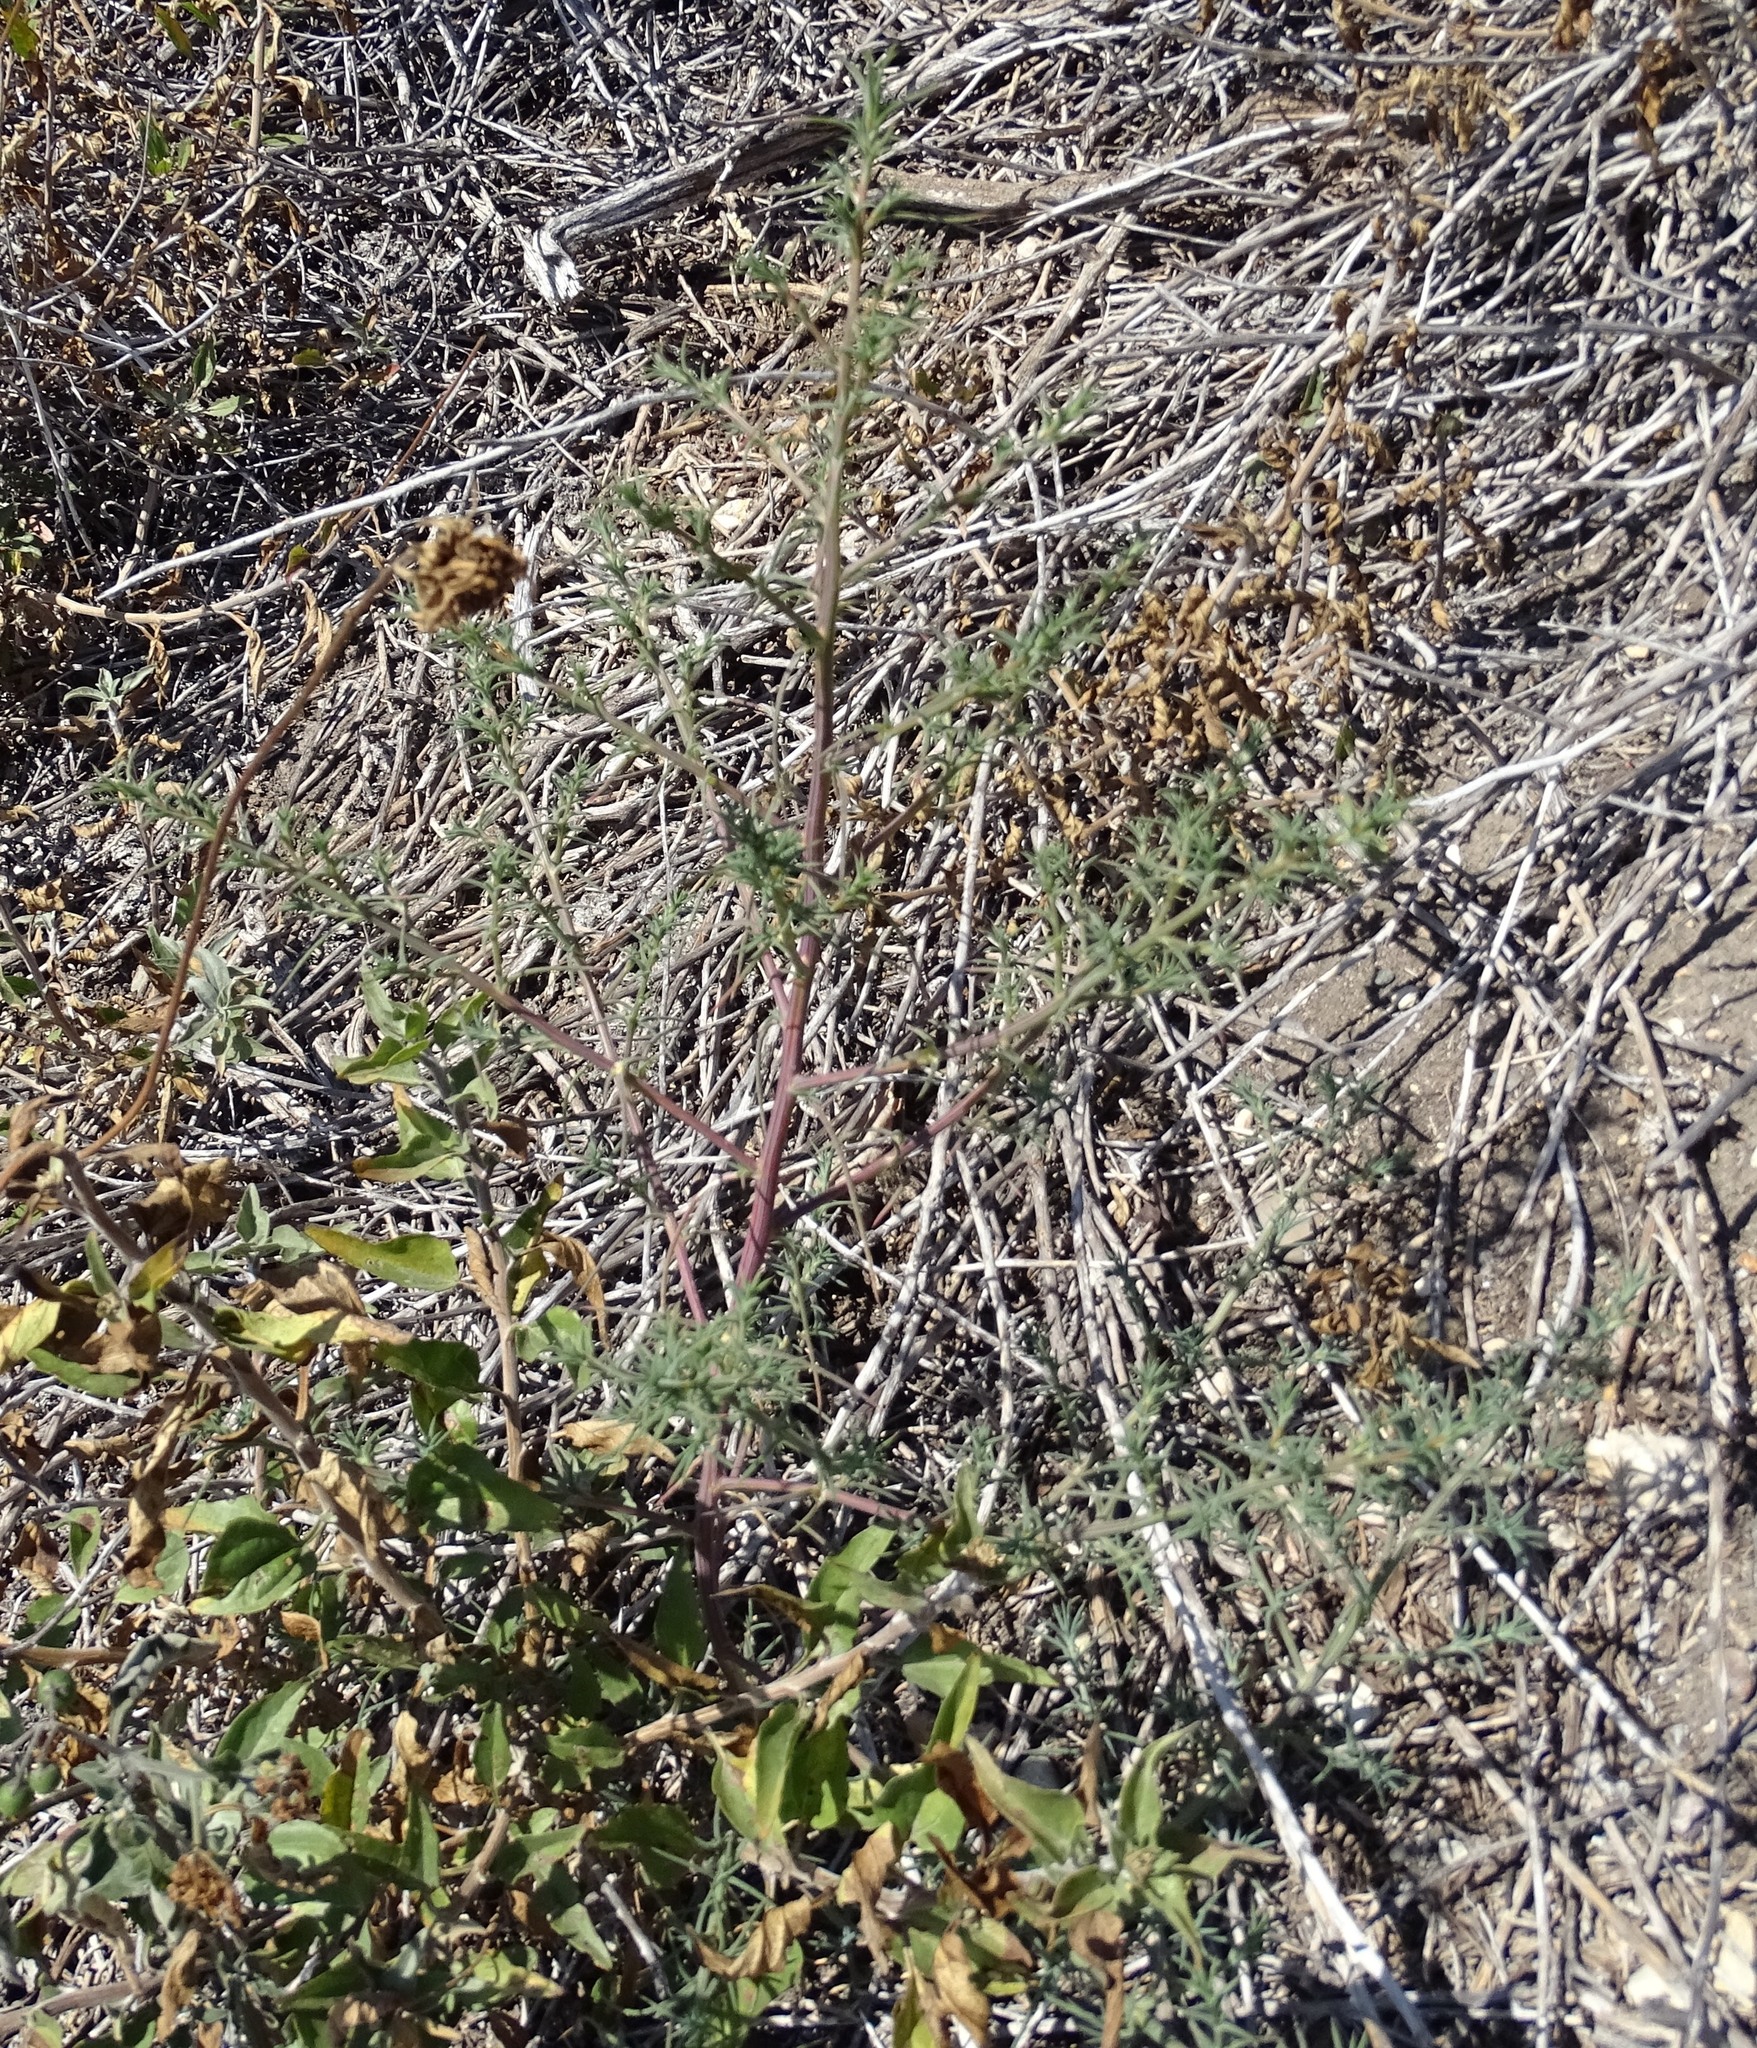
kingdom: Plantae
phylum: Tracheophyta
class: Magnoliopsida
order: Caryophyllales
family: Amaranthaceae
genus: Salsola
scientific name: Salsola
